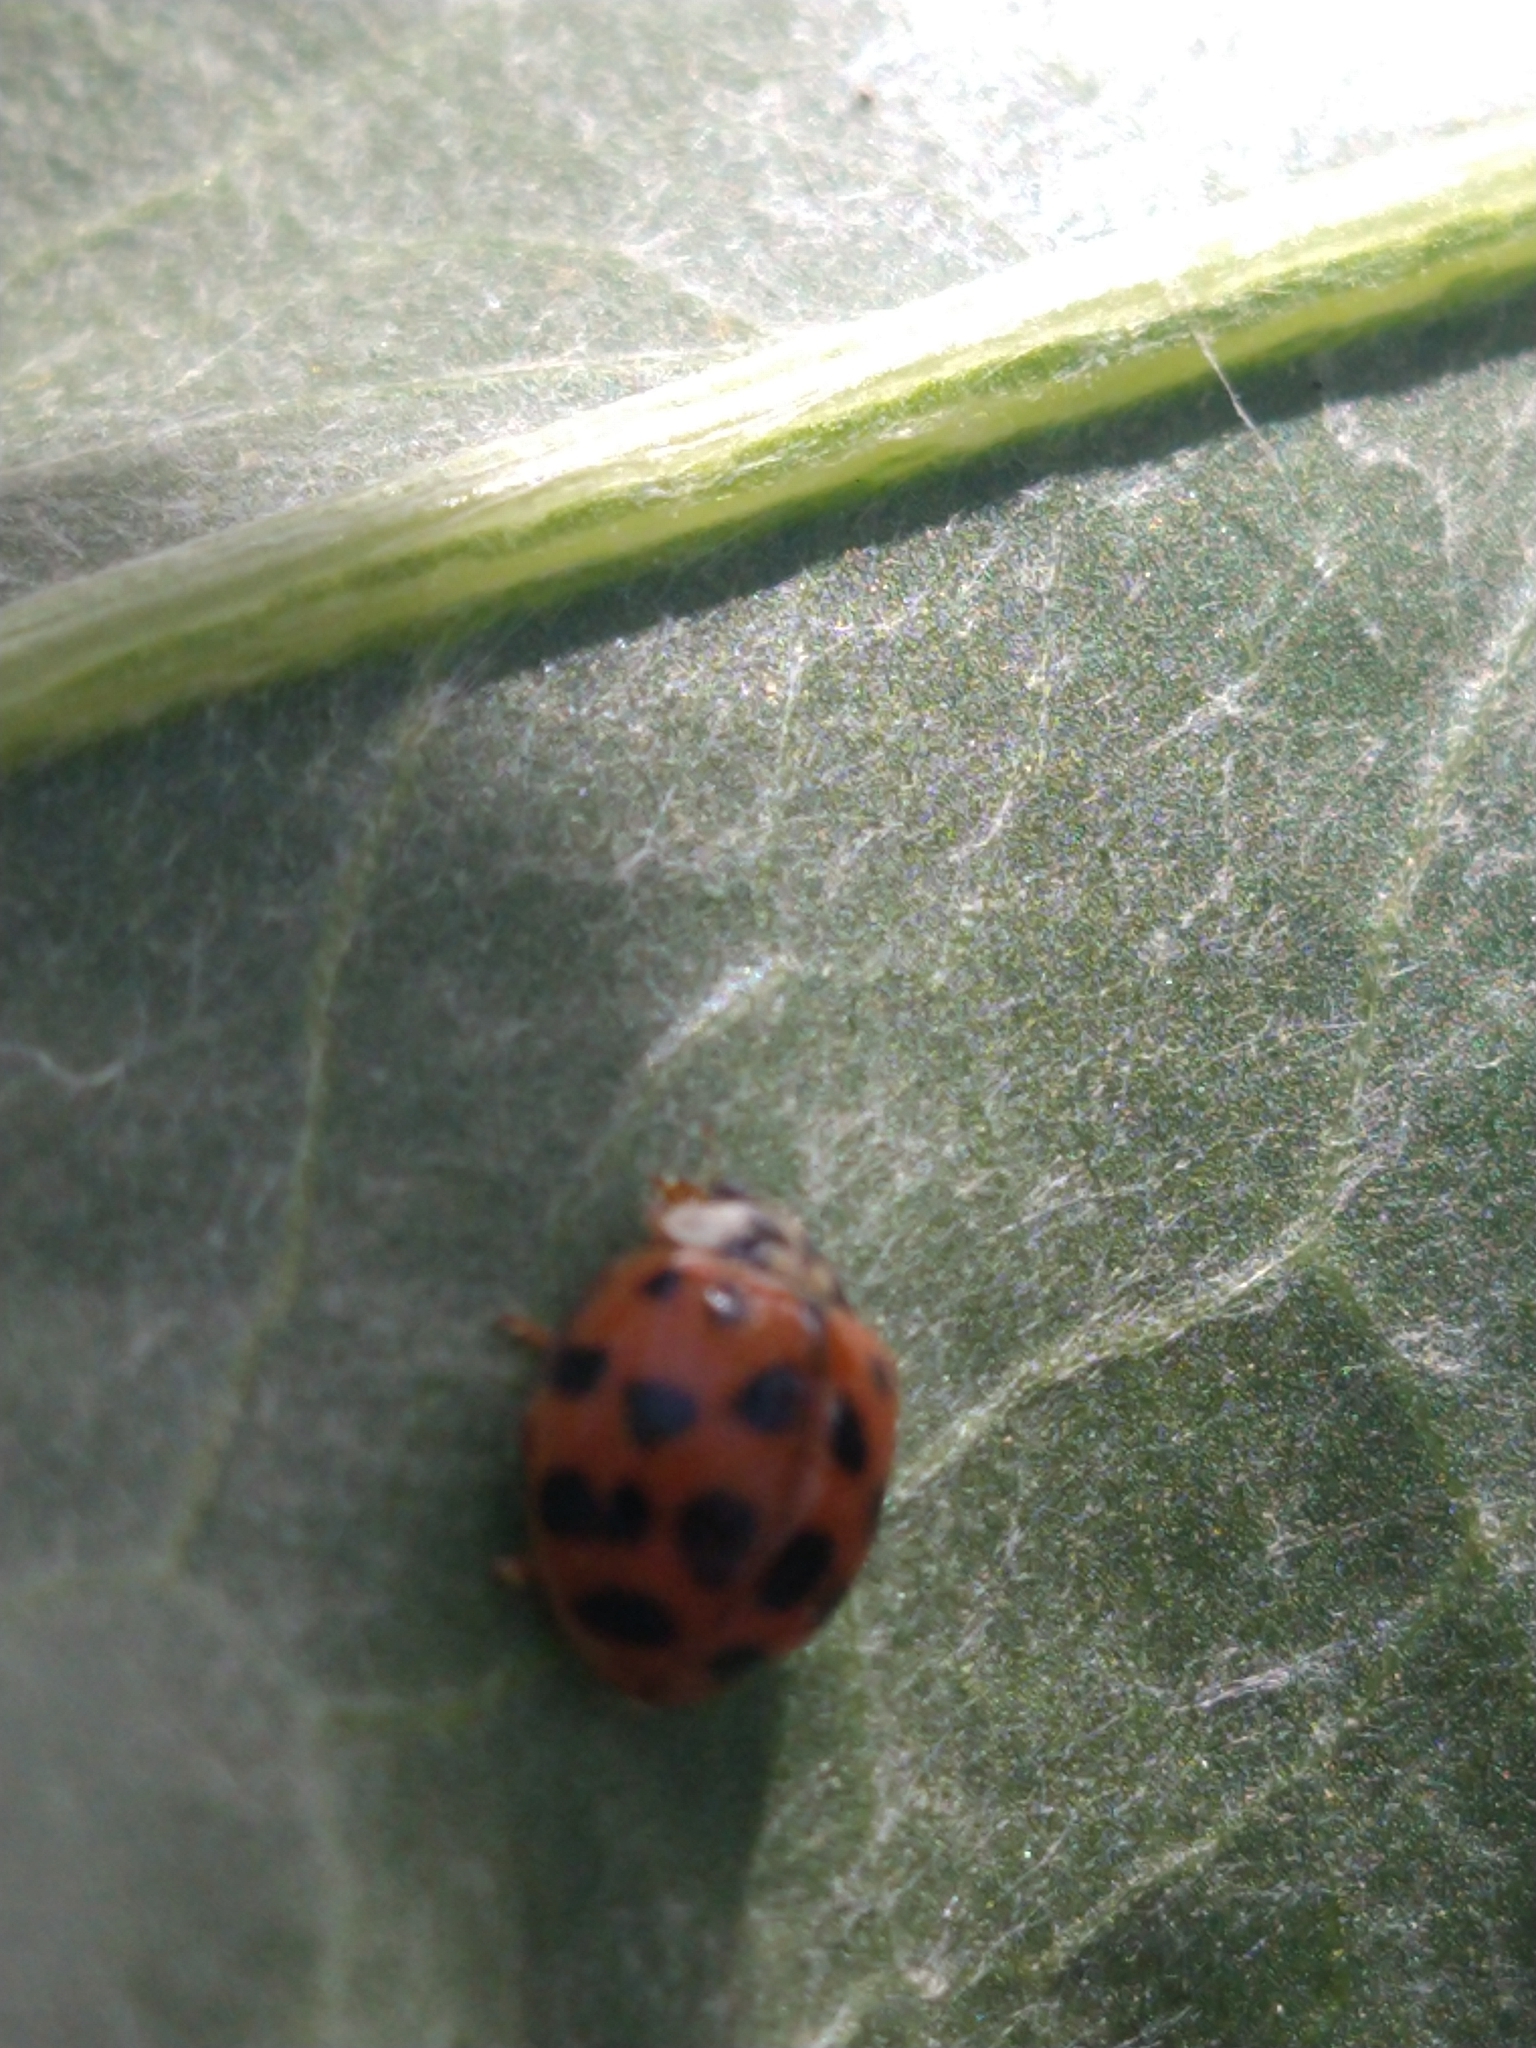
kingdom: Animalia
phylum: Arthropoda
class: Insecta
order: Coleoptera
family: Coccinellidae
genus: Harmonia
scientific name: Harmonia axyridis
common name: Harlequin ladybird
